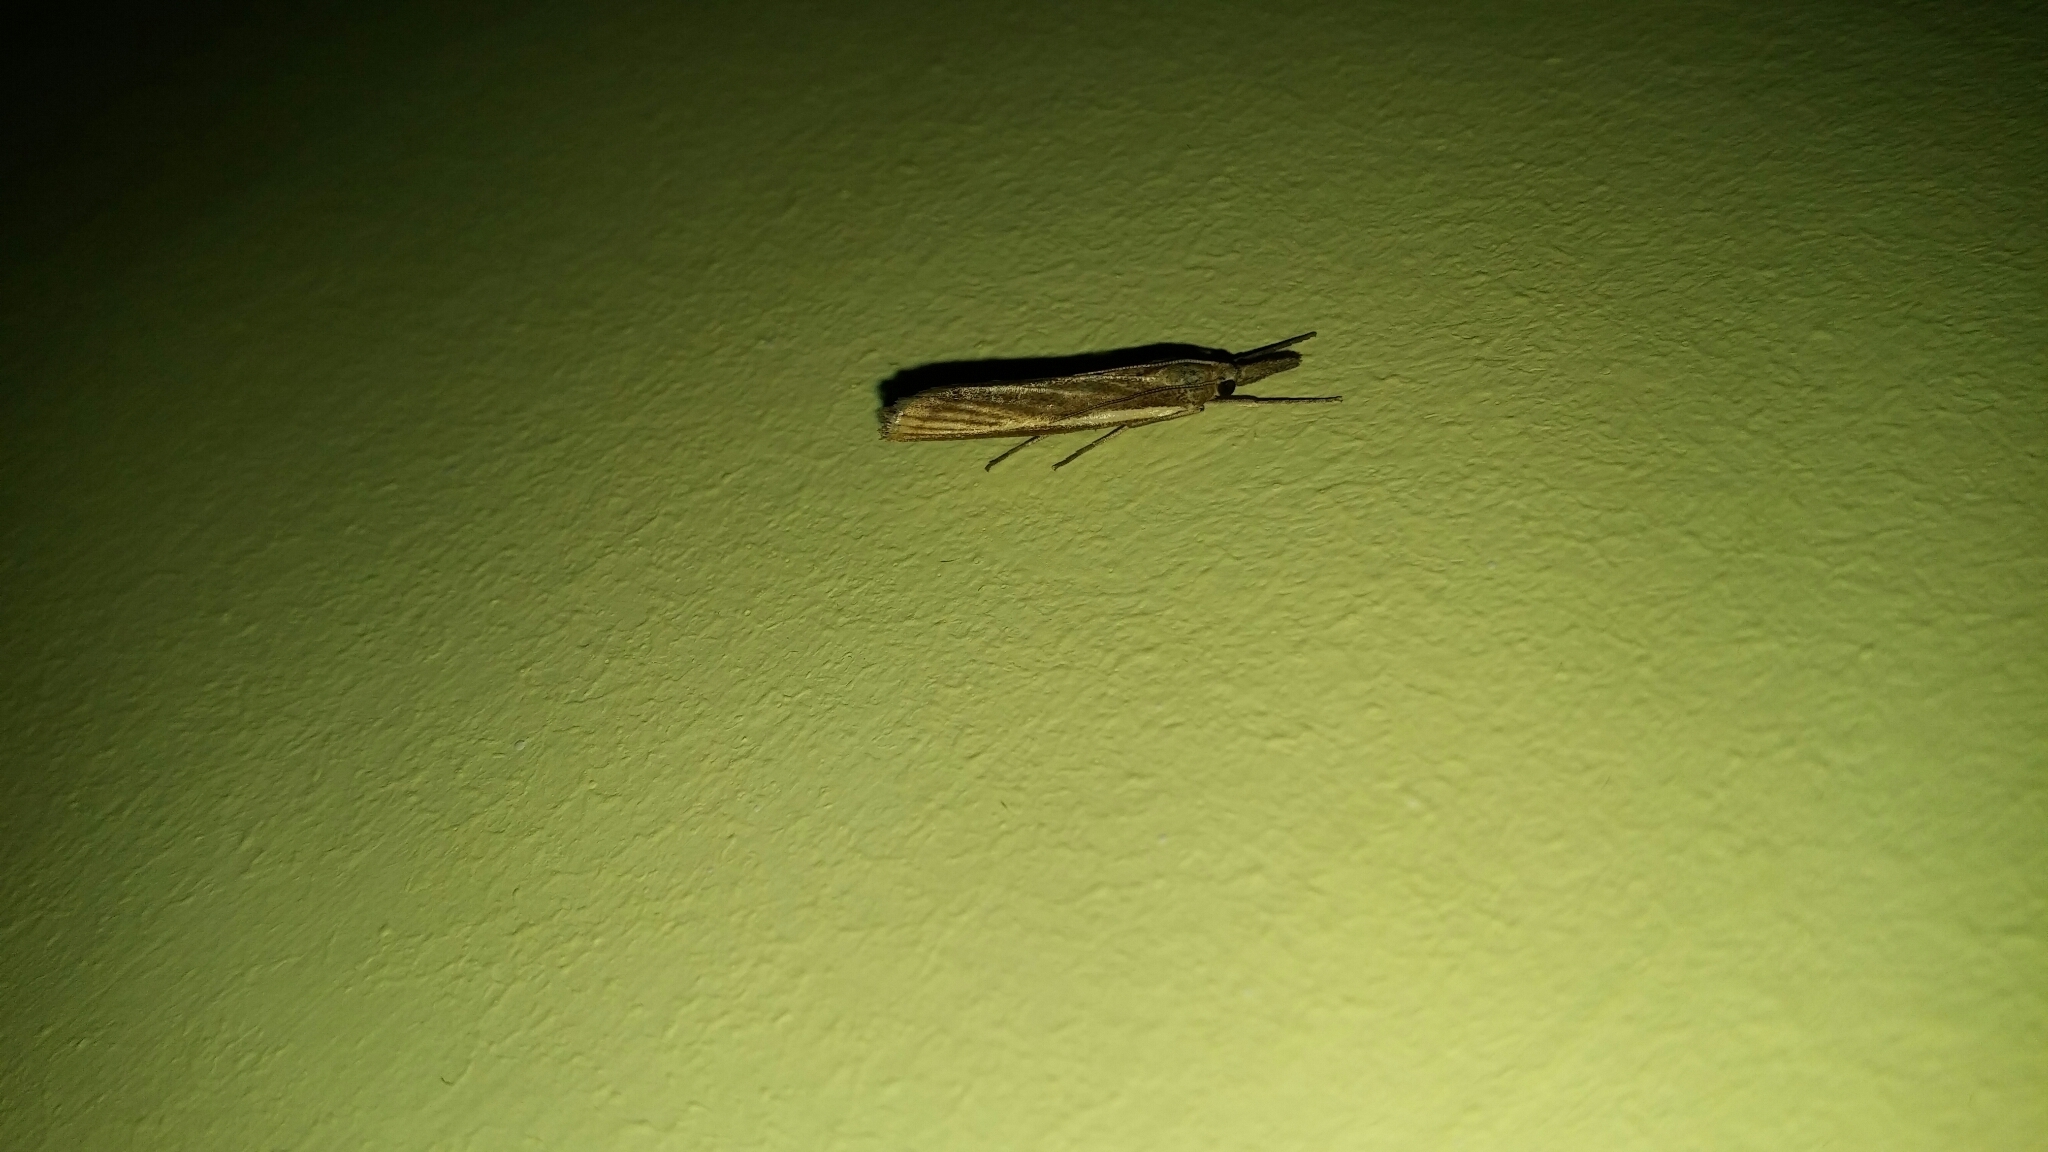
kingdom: Animalia
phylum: Arthropoda
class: Insecta
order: Lepidoptera
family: Crambidae
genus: Agriphila
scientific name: Agriphila tristellus
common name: Common grass-veneer
